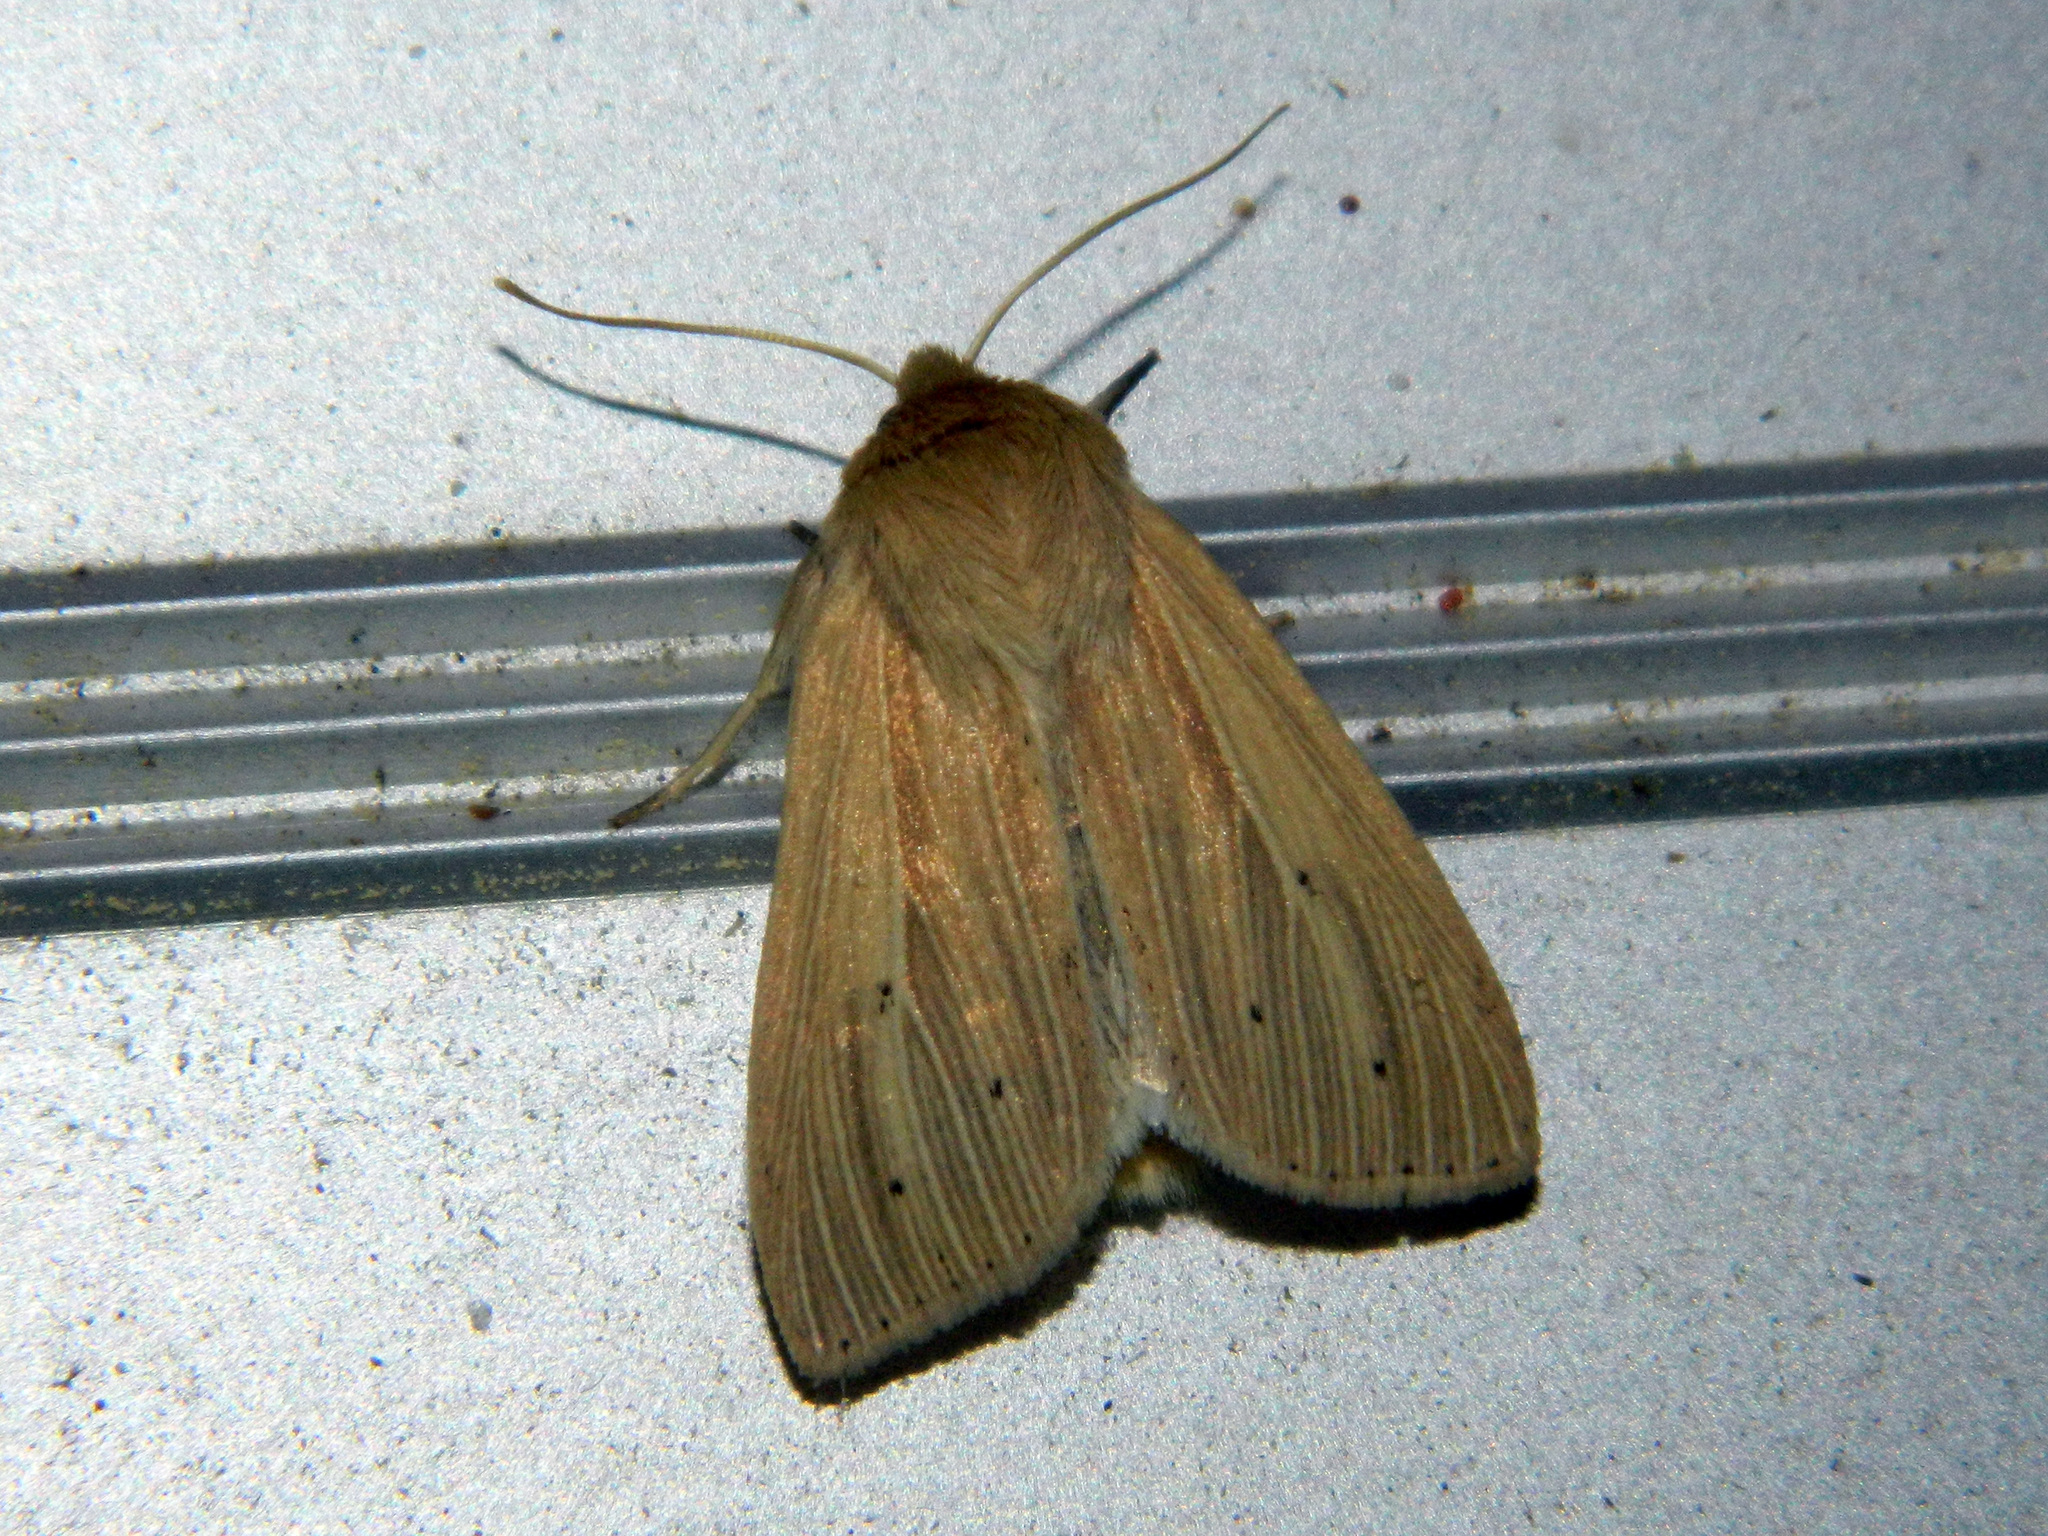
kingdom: Animalia
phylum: Arthropoda
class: Insecta
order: Lepidoptera
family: Noctuidae
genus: Mythimna
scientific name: Mythimna oxygala
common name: Lesser wainscot
